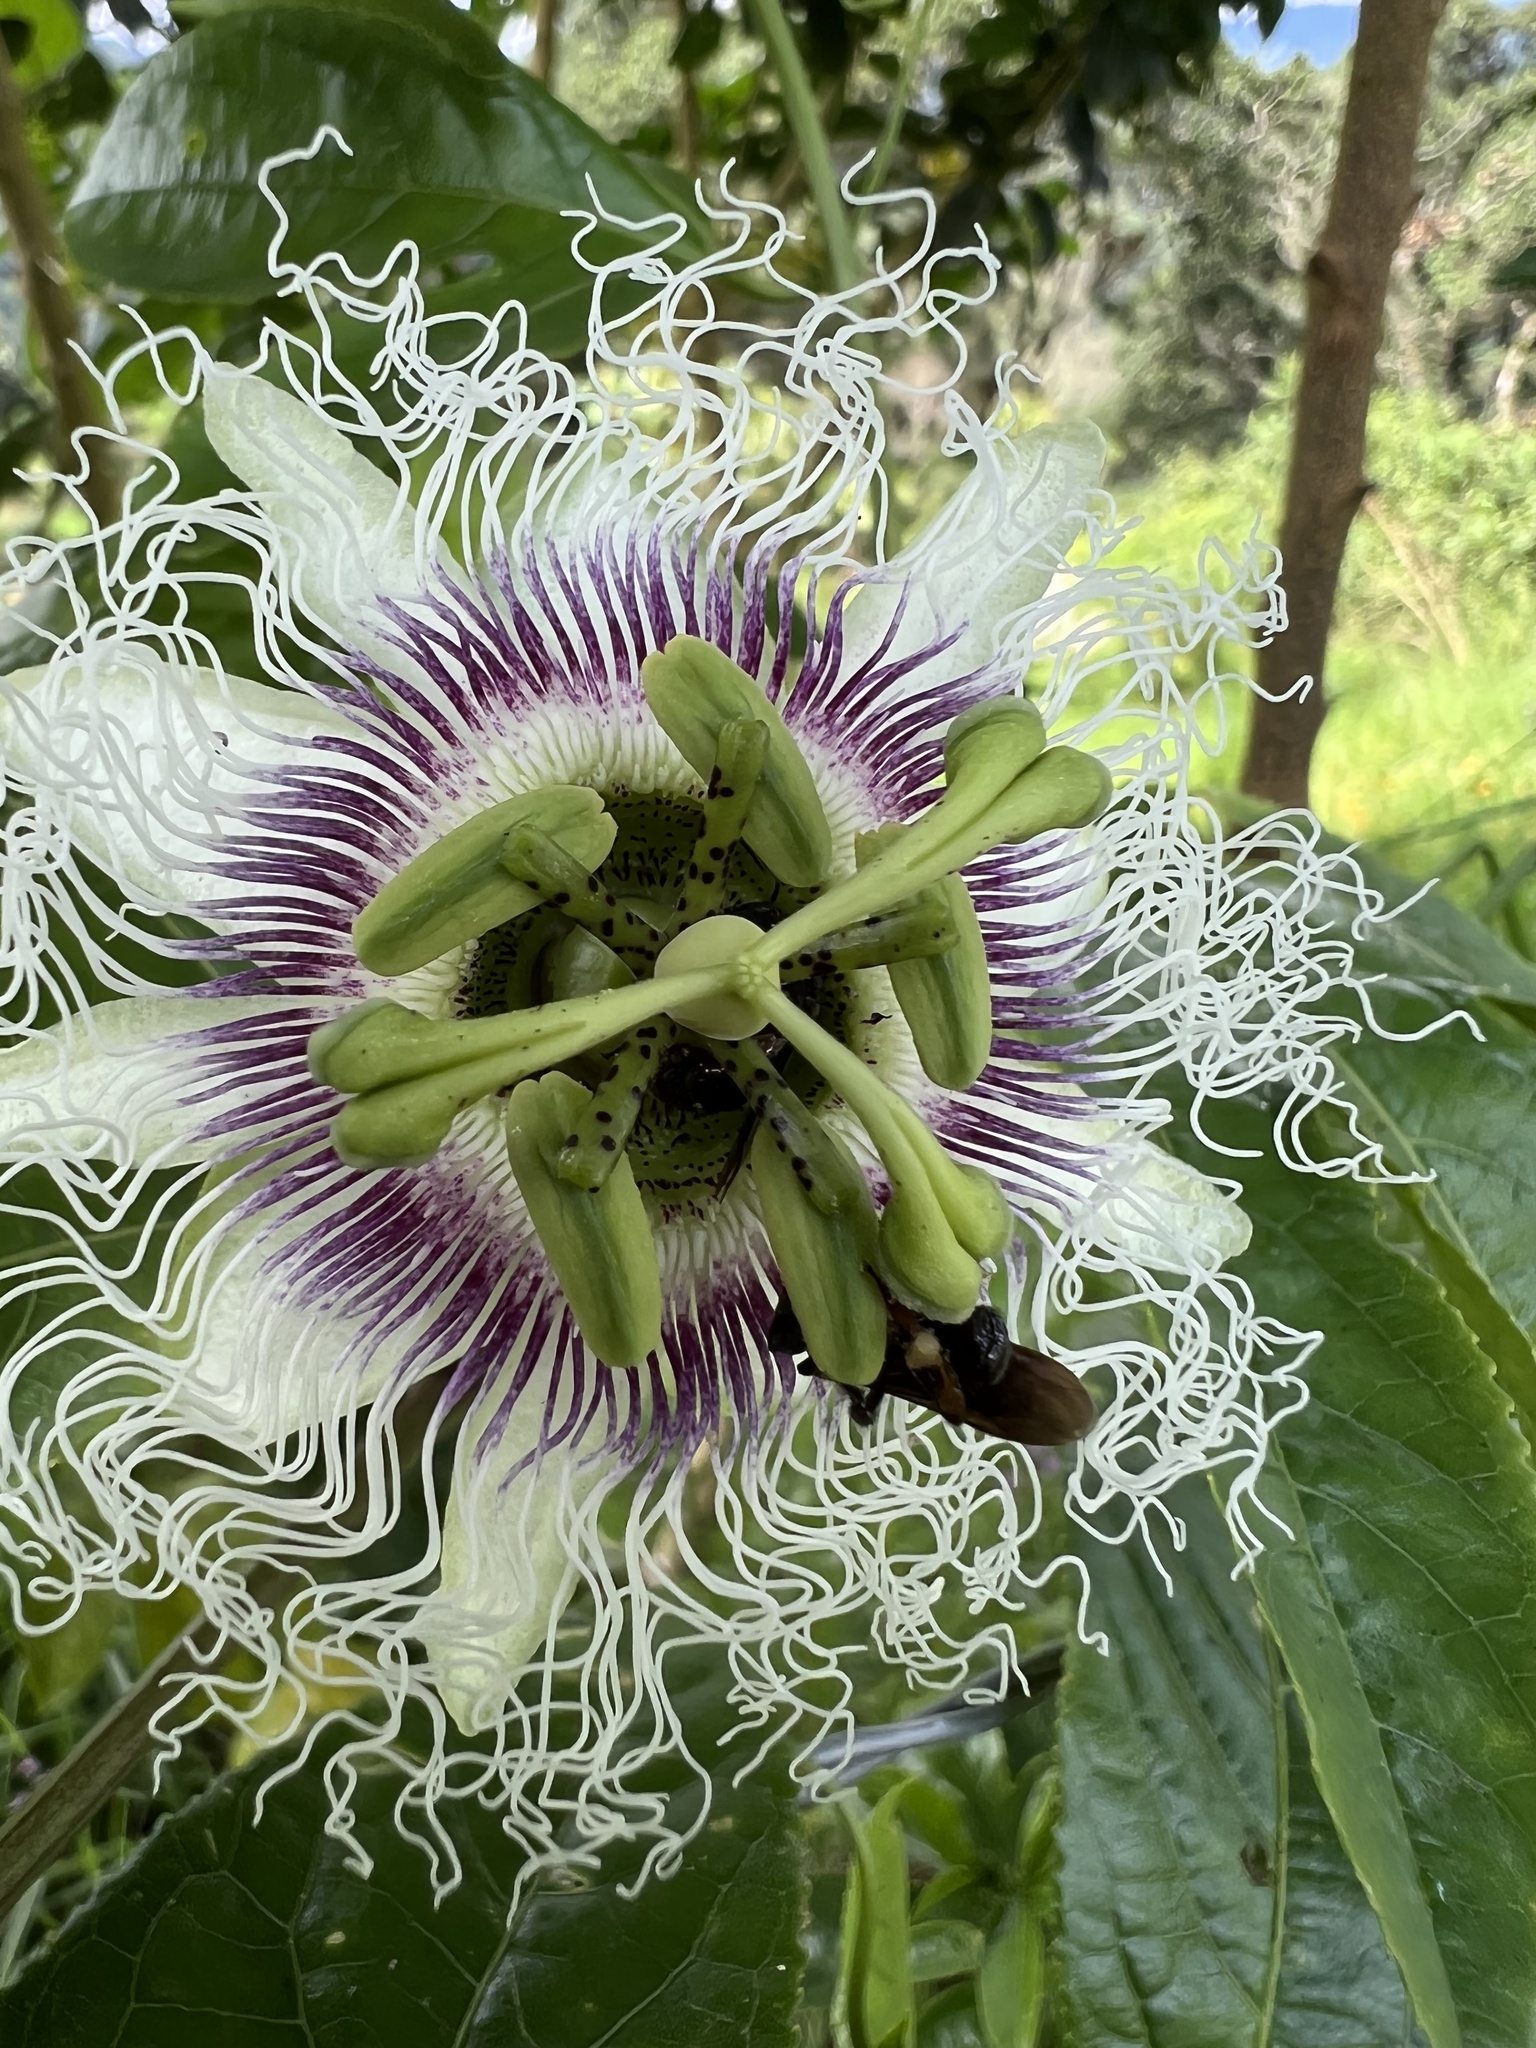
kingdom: Plantae
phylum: Tracheophyta
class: Magnoliopsida
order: Malpighiales
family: Passifloraceae
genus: Passiflora
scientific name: Passiflora edulis
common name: Purple granadilla
